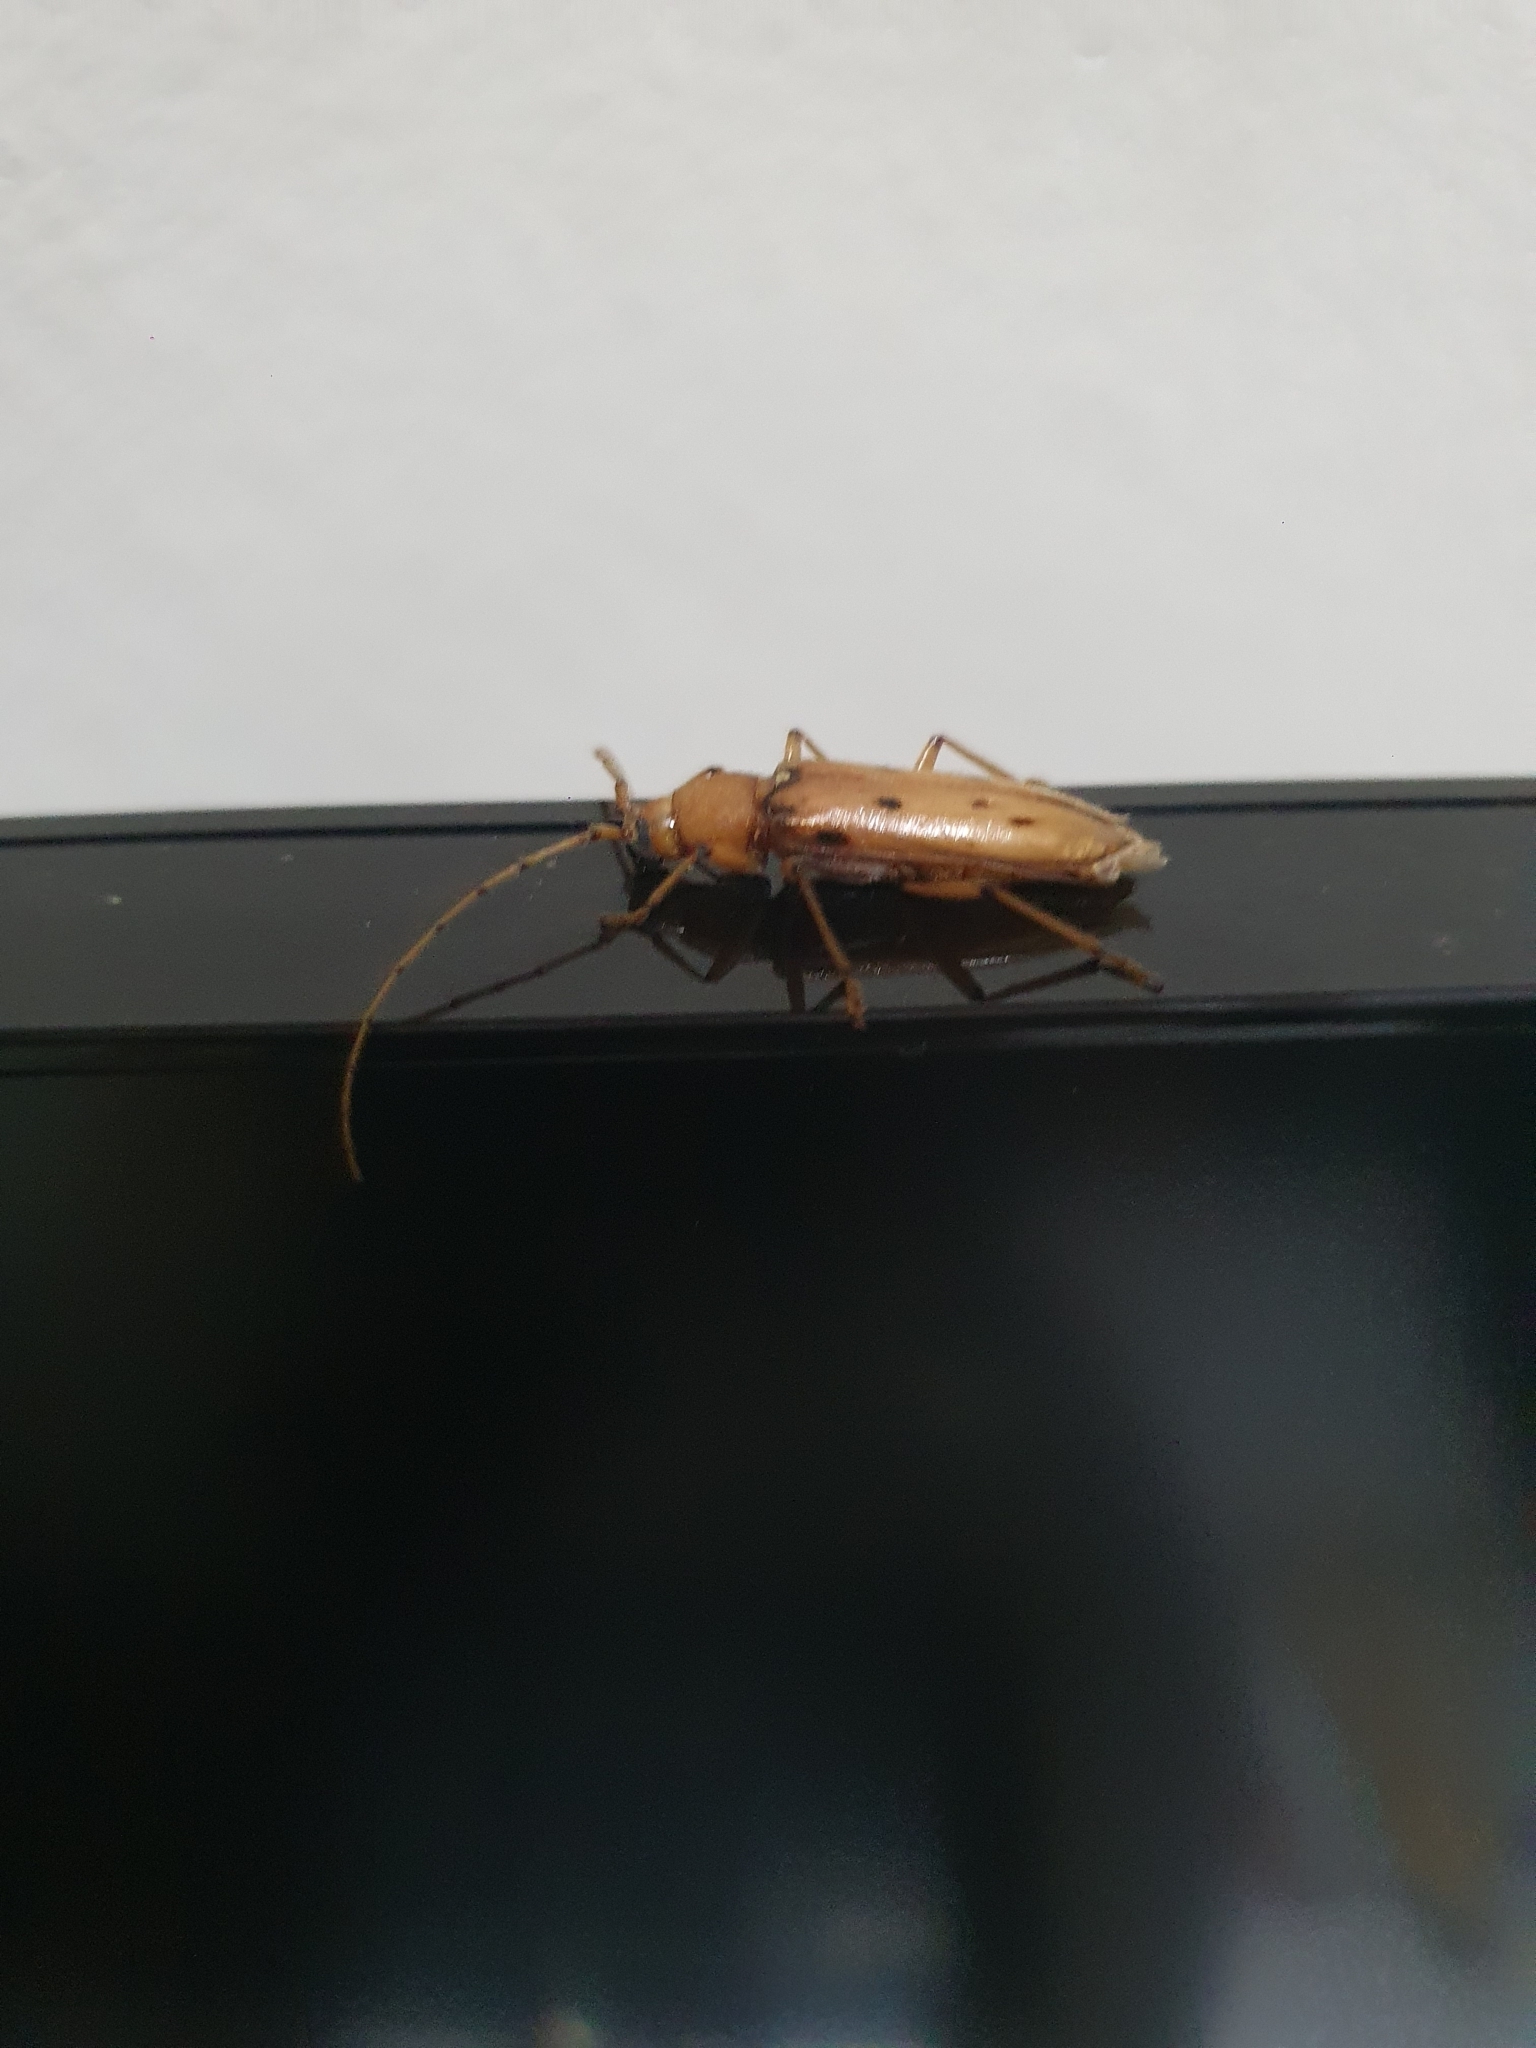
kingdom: Animalia
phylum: Arthropoda
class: Insecta
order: Coleoptera
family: Cerambycidae
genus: Achryson
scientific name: Achryson surinamum
